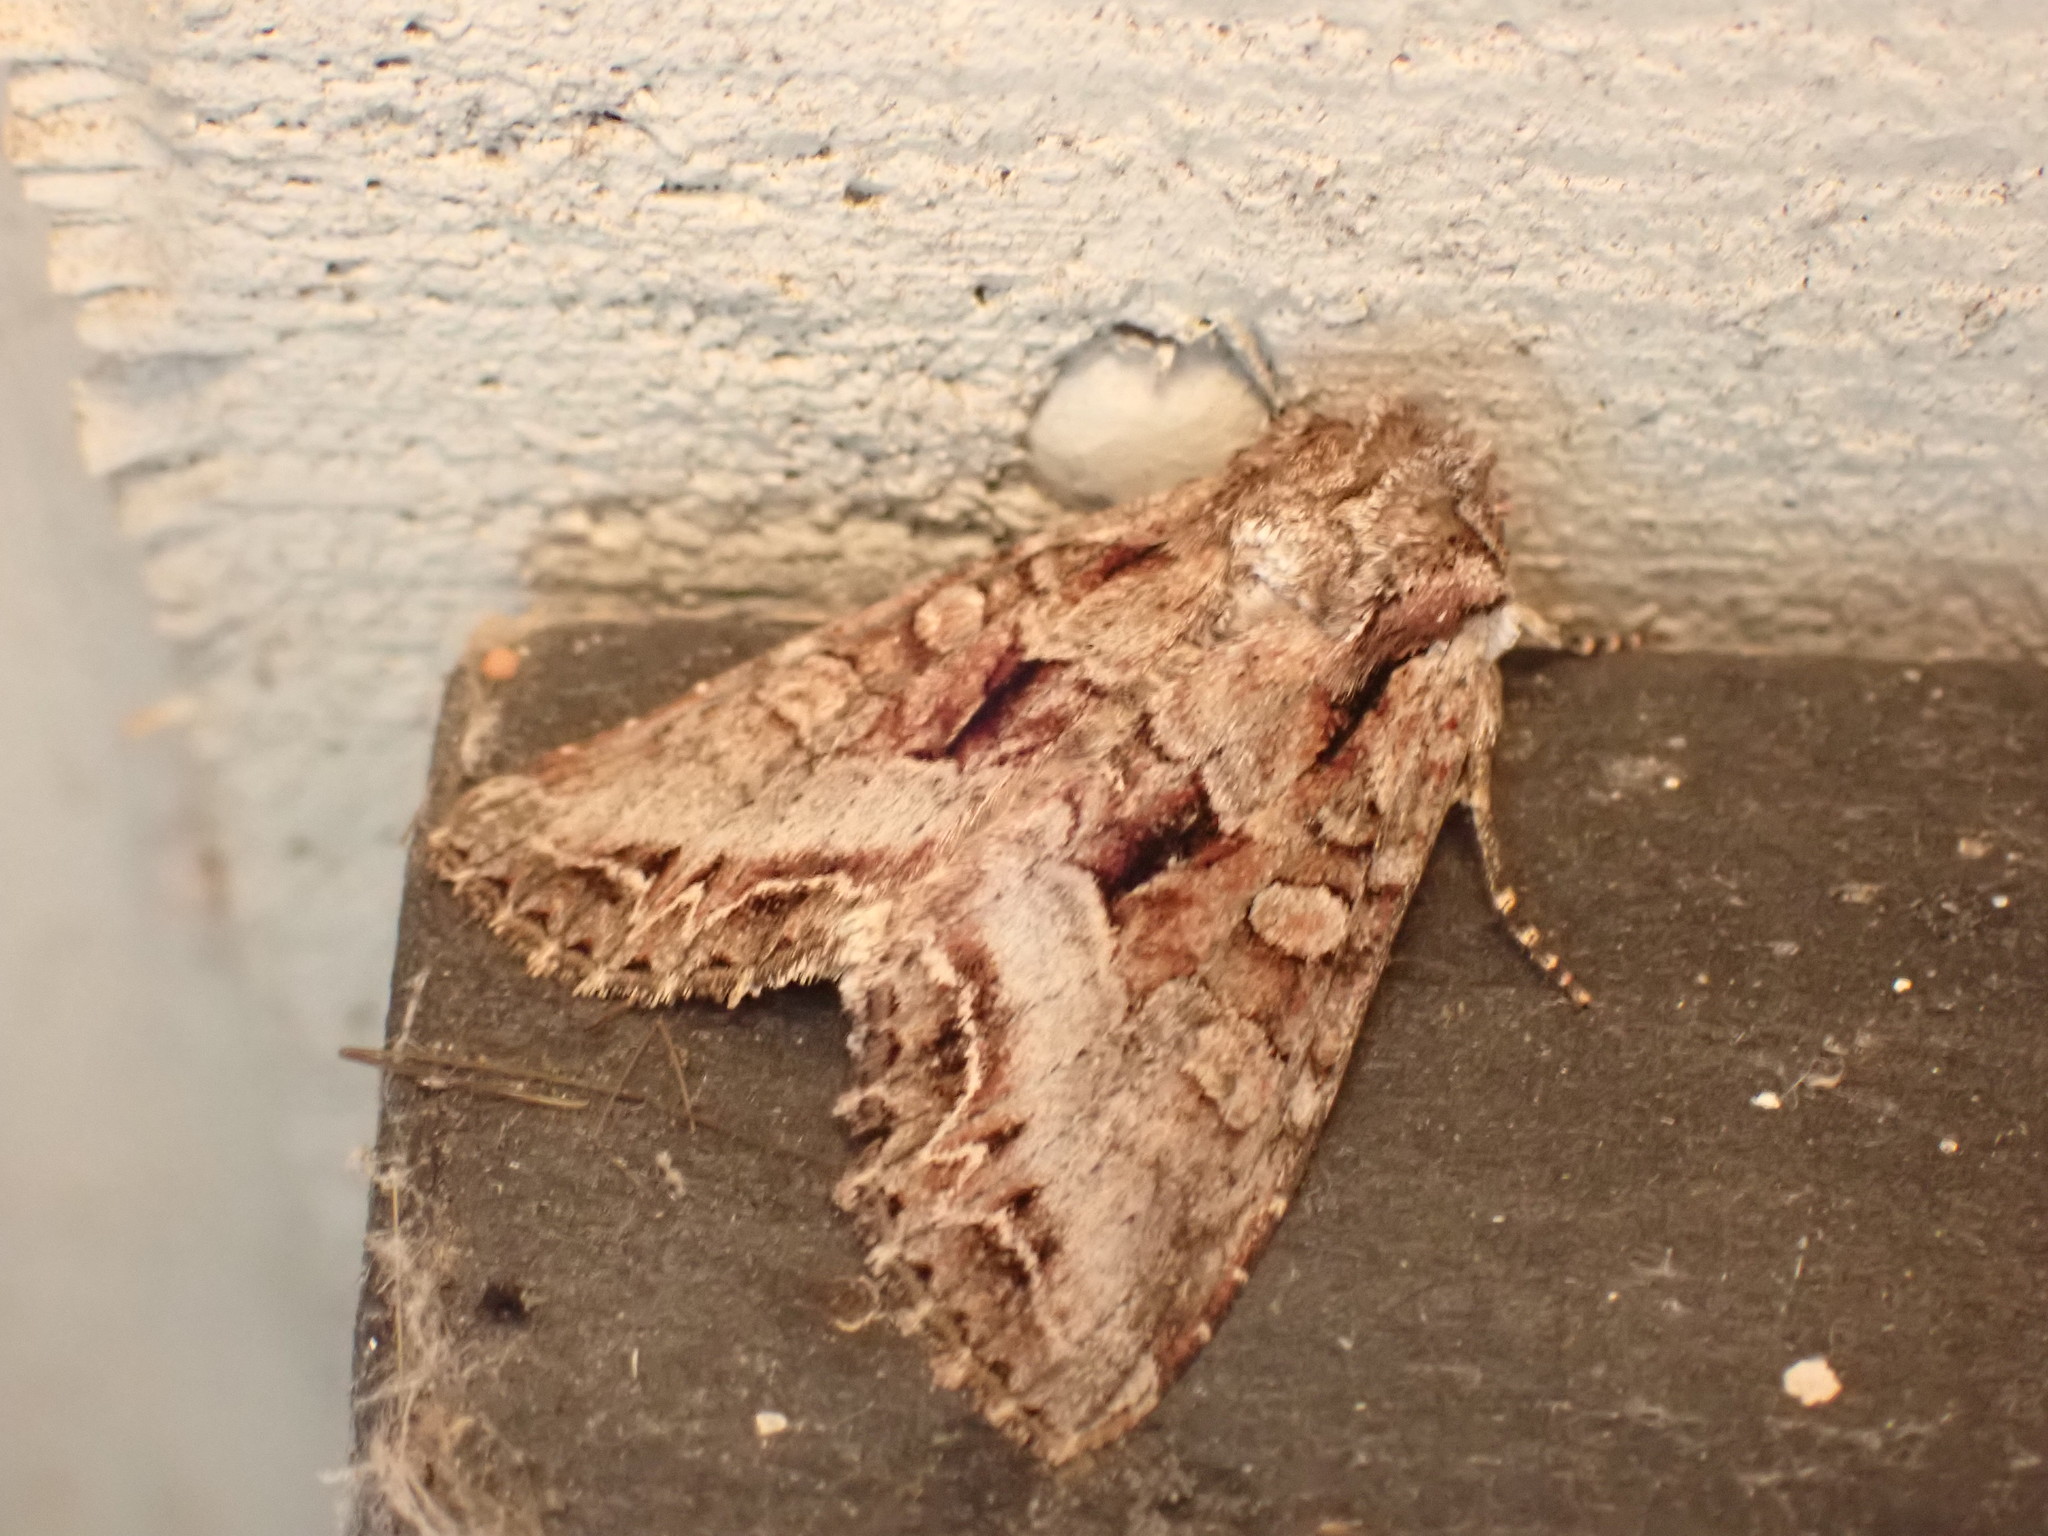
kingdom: Animalia
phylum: Arthropoda
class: Insecta
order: Lepidoptera
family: Noctuidae
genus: Lacanobia
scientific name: Lacanobia grandis
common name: Grand arches moth
